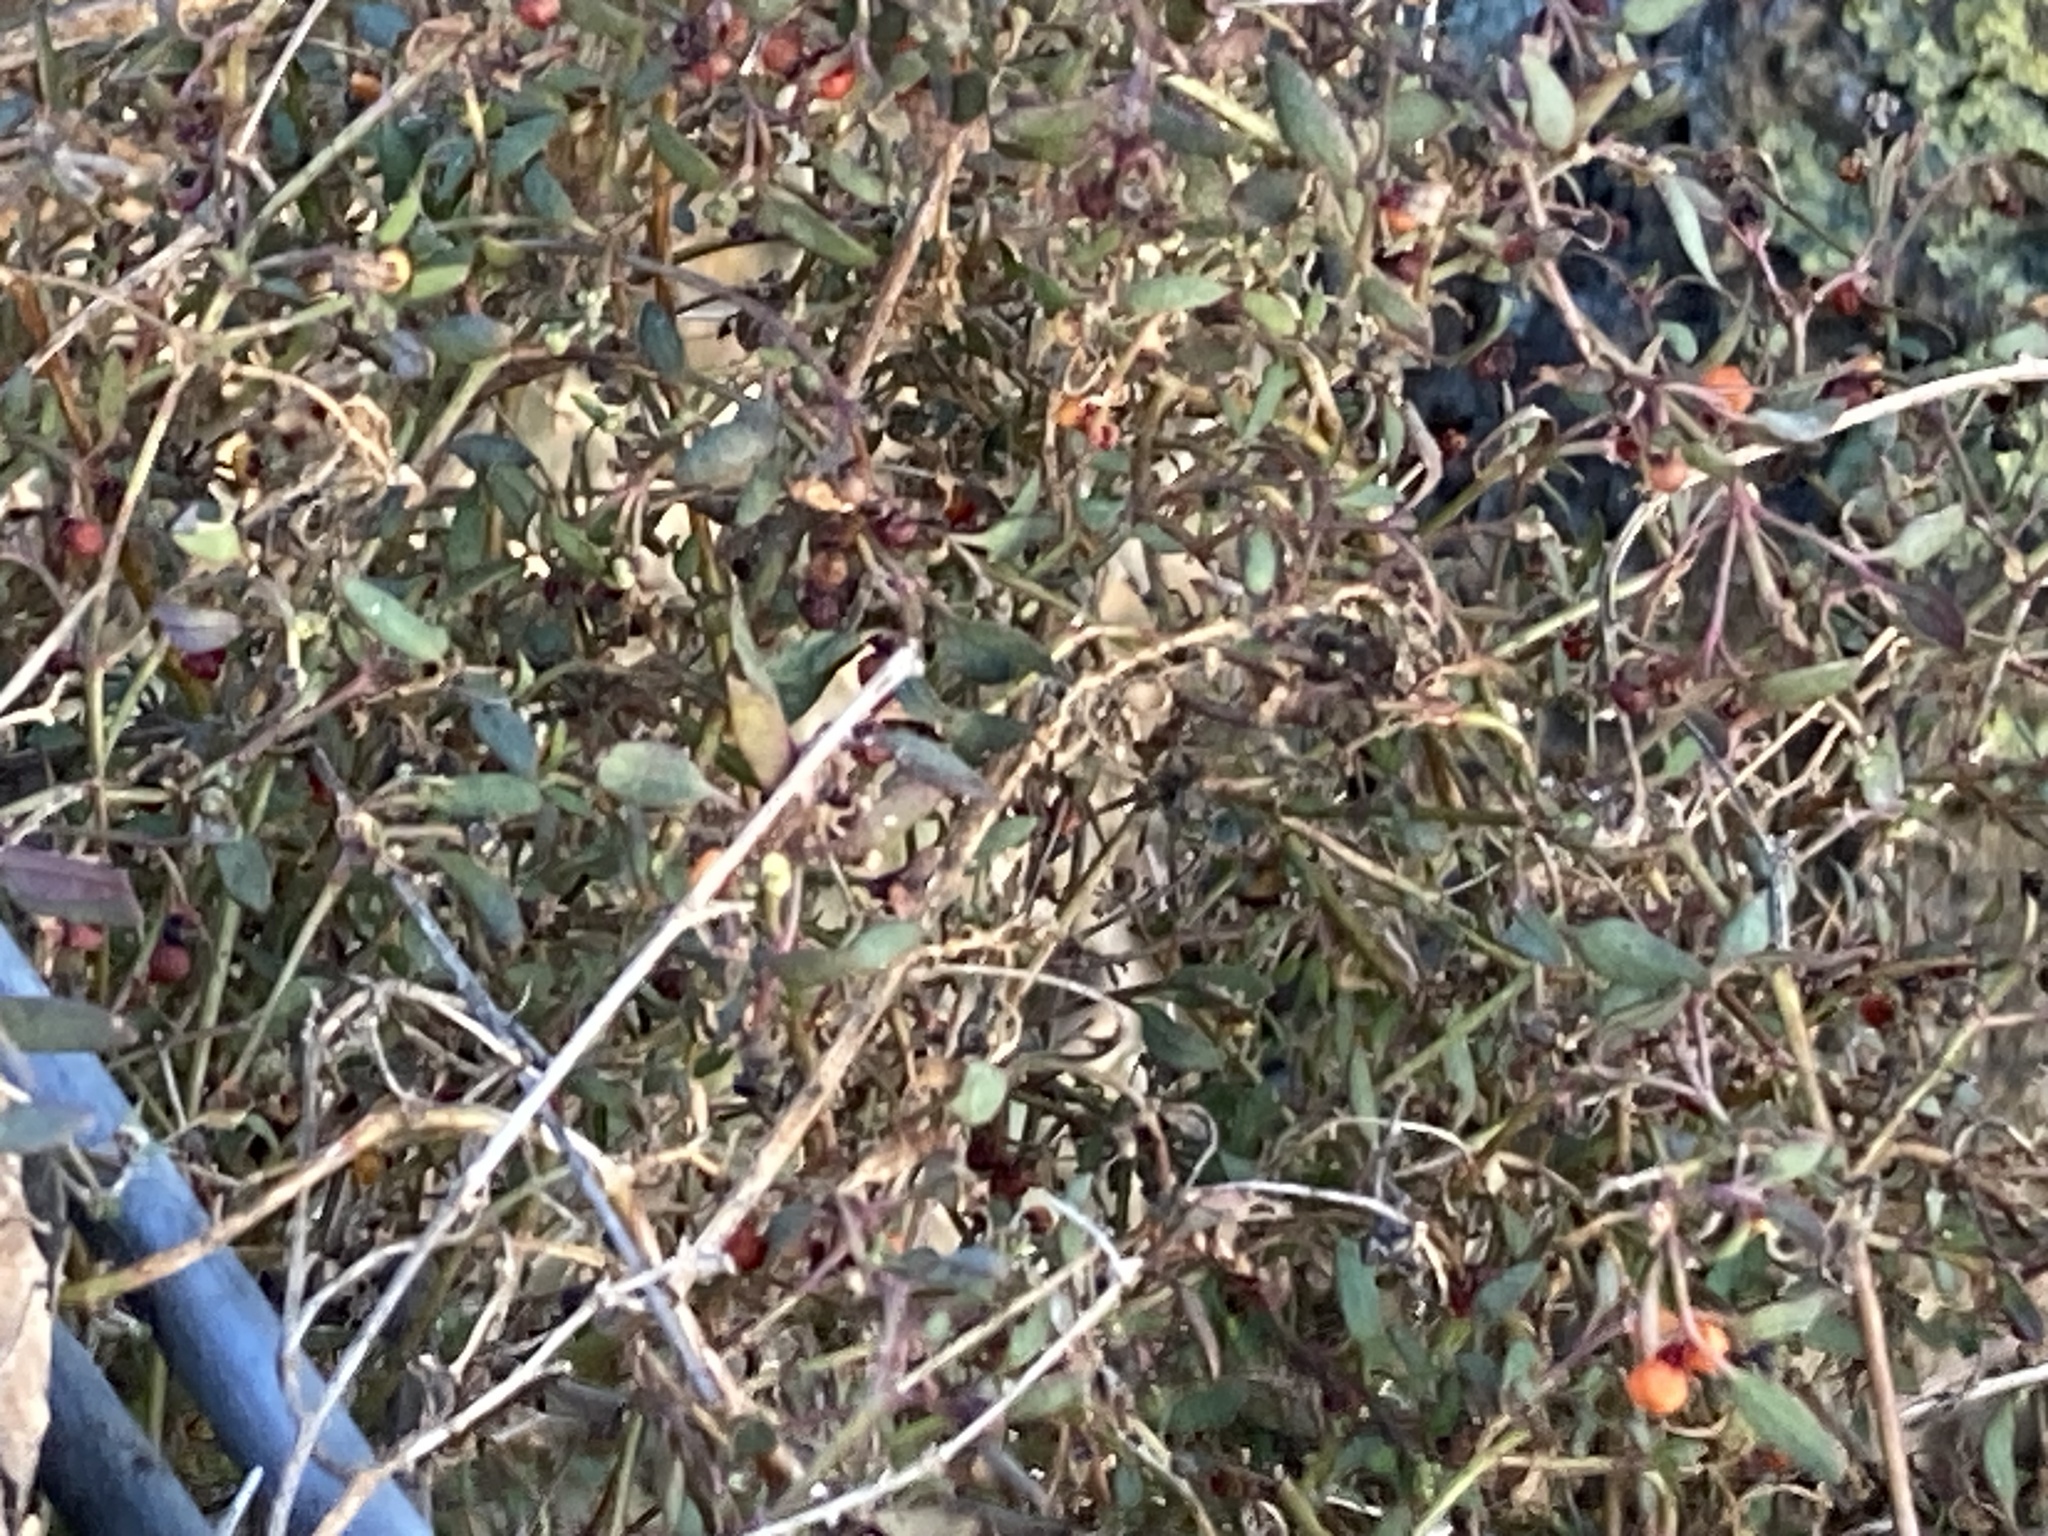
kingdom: Plantae
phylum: Tracheophyta
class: Magnoliopsida
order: Caryophyllales
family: Amaranthaceae
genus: Chenopodium
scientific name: Chenopodium nutans
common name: Climbing-saltbush
